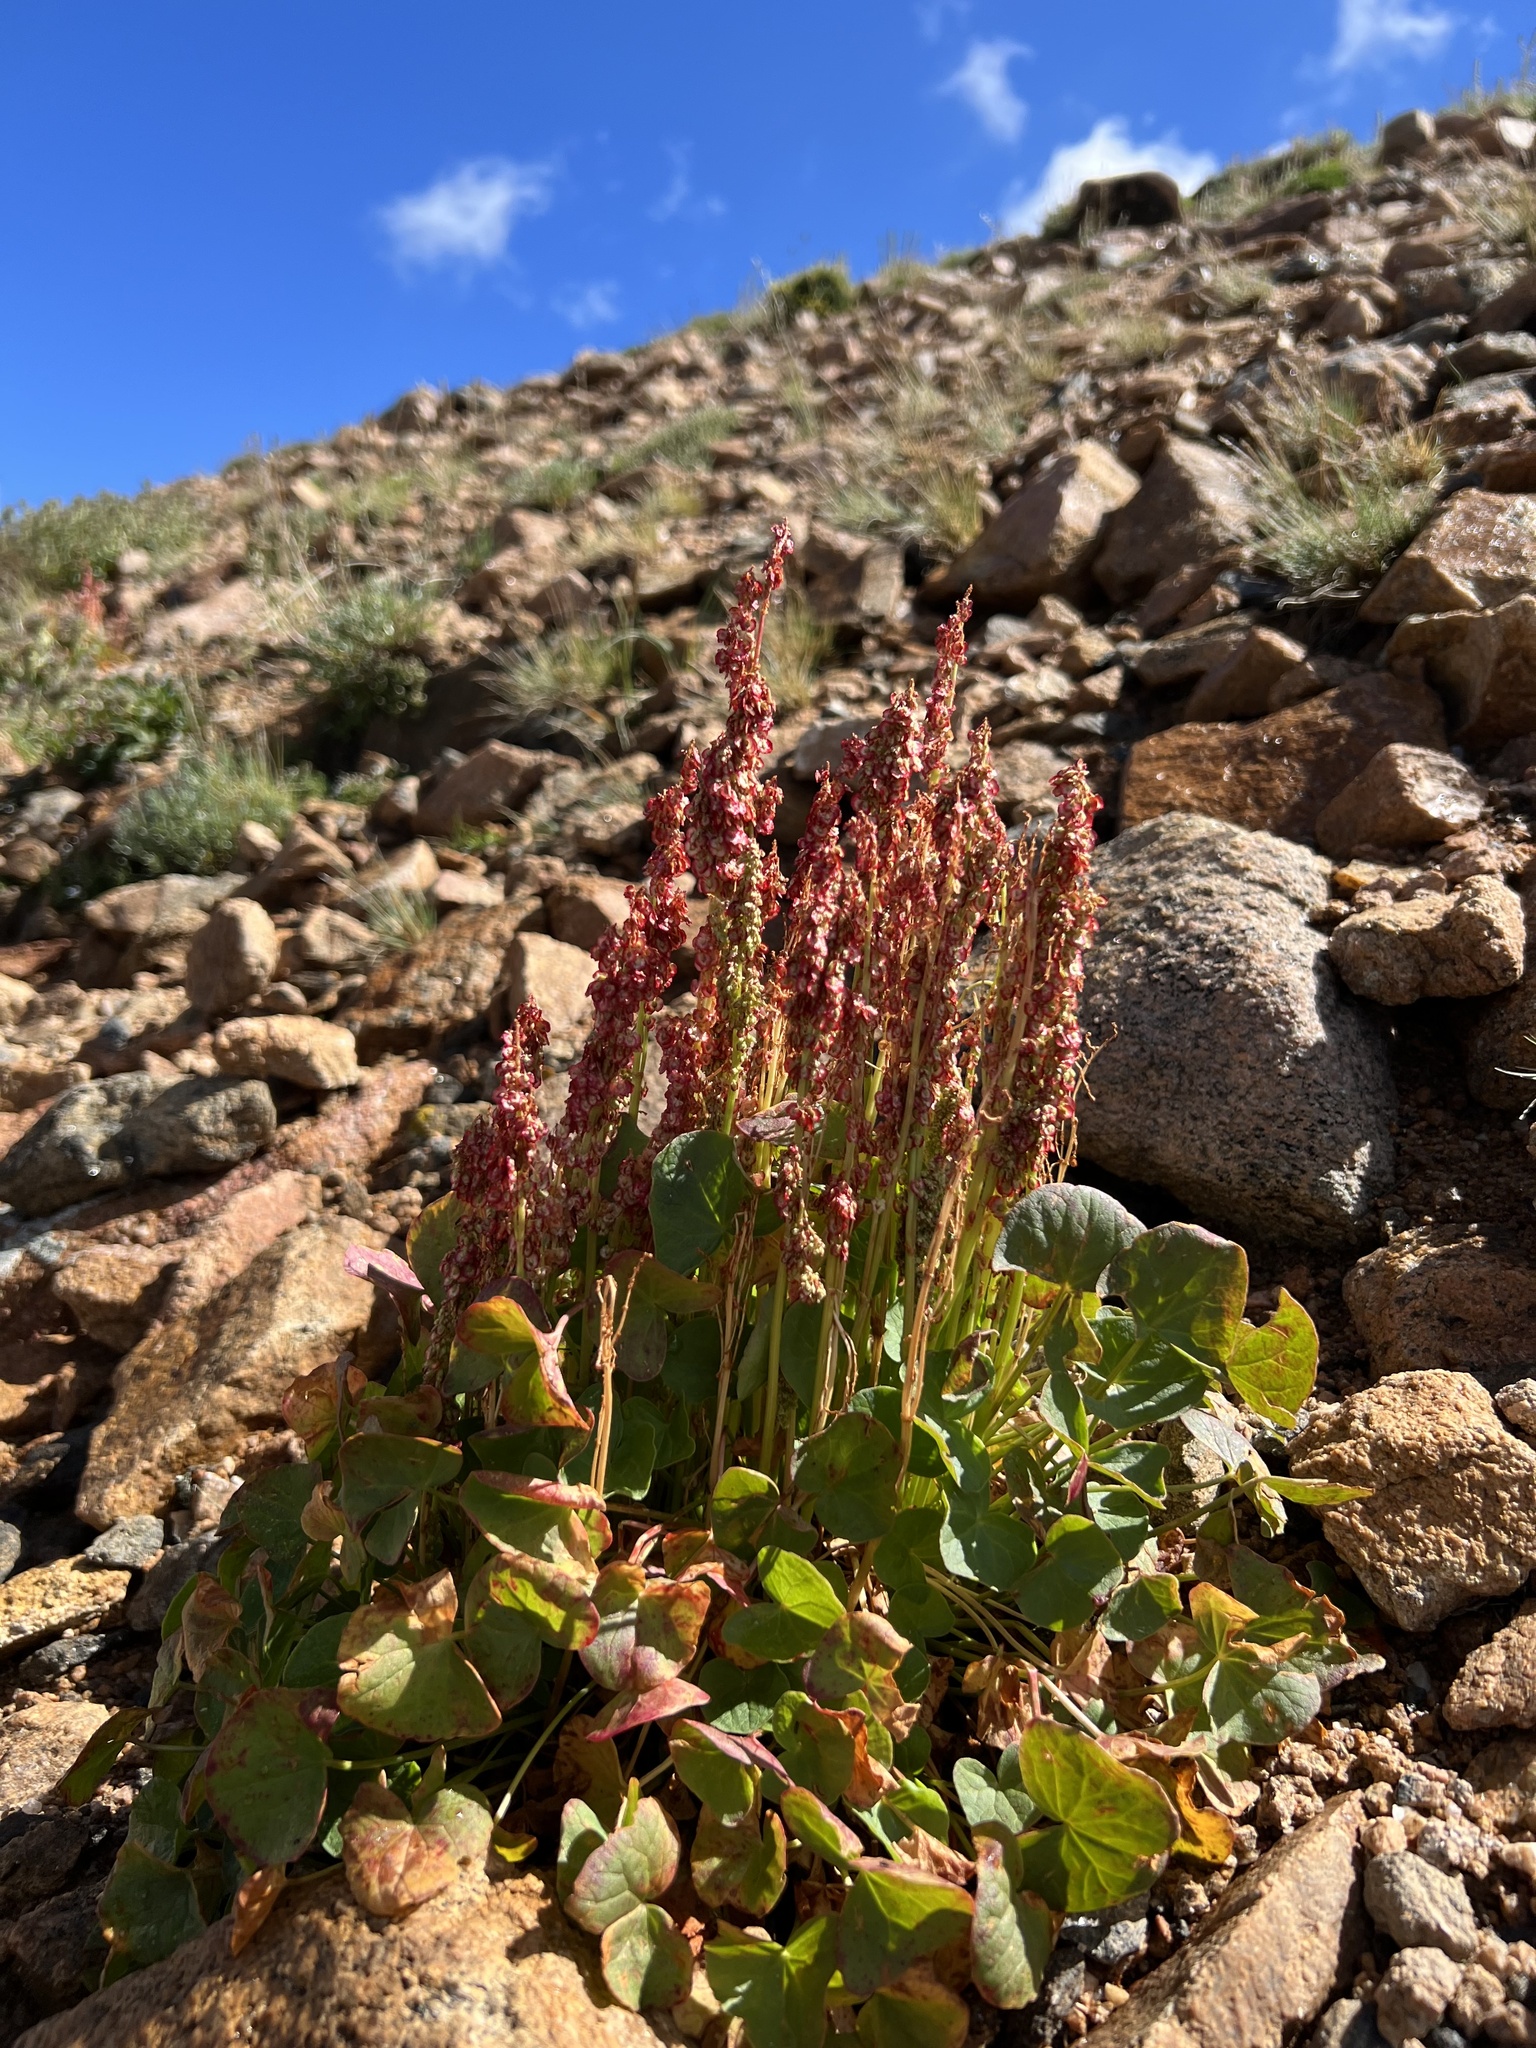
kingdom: Plantae
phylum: Tracheophyta
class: Magnoliopsida
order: Caryophyllales
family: Polygonaceae
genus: Oxyria
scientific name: Oxyria digyna
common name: Alpine mountain-sorrel
